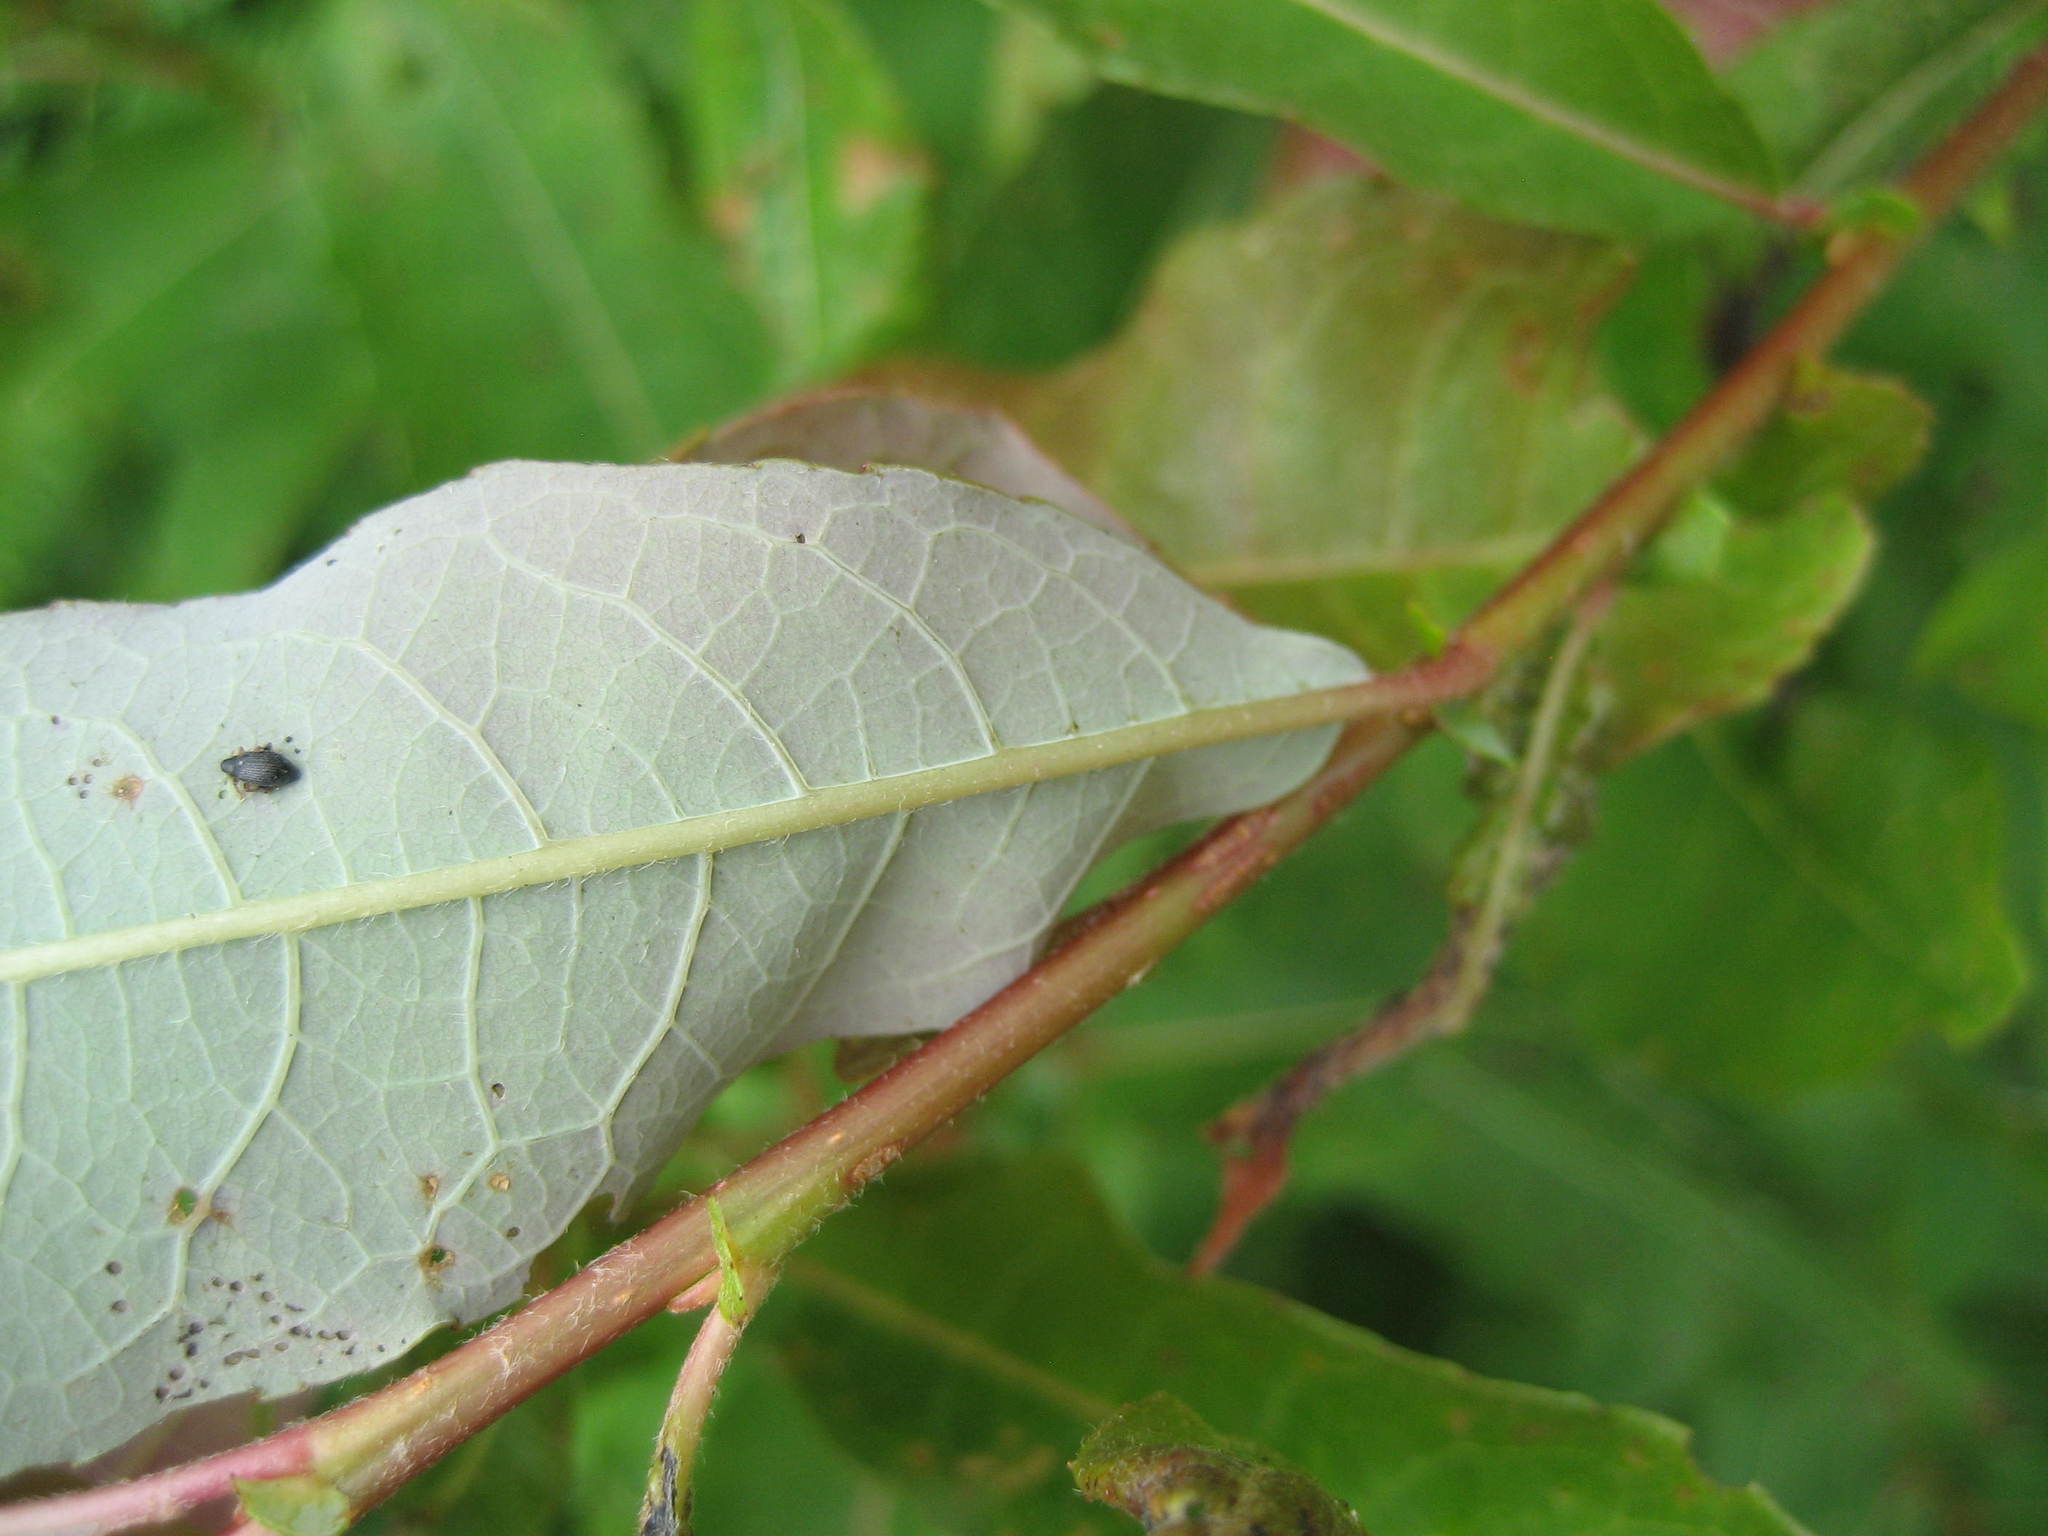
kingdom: Plantae
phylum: Tracheophyta
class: Magnoliopsida
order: Malpighiales
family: Salicaceae
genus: Salix
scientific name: Salix bebbiana
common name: Bebb's willow
